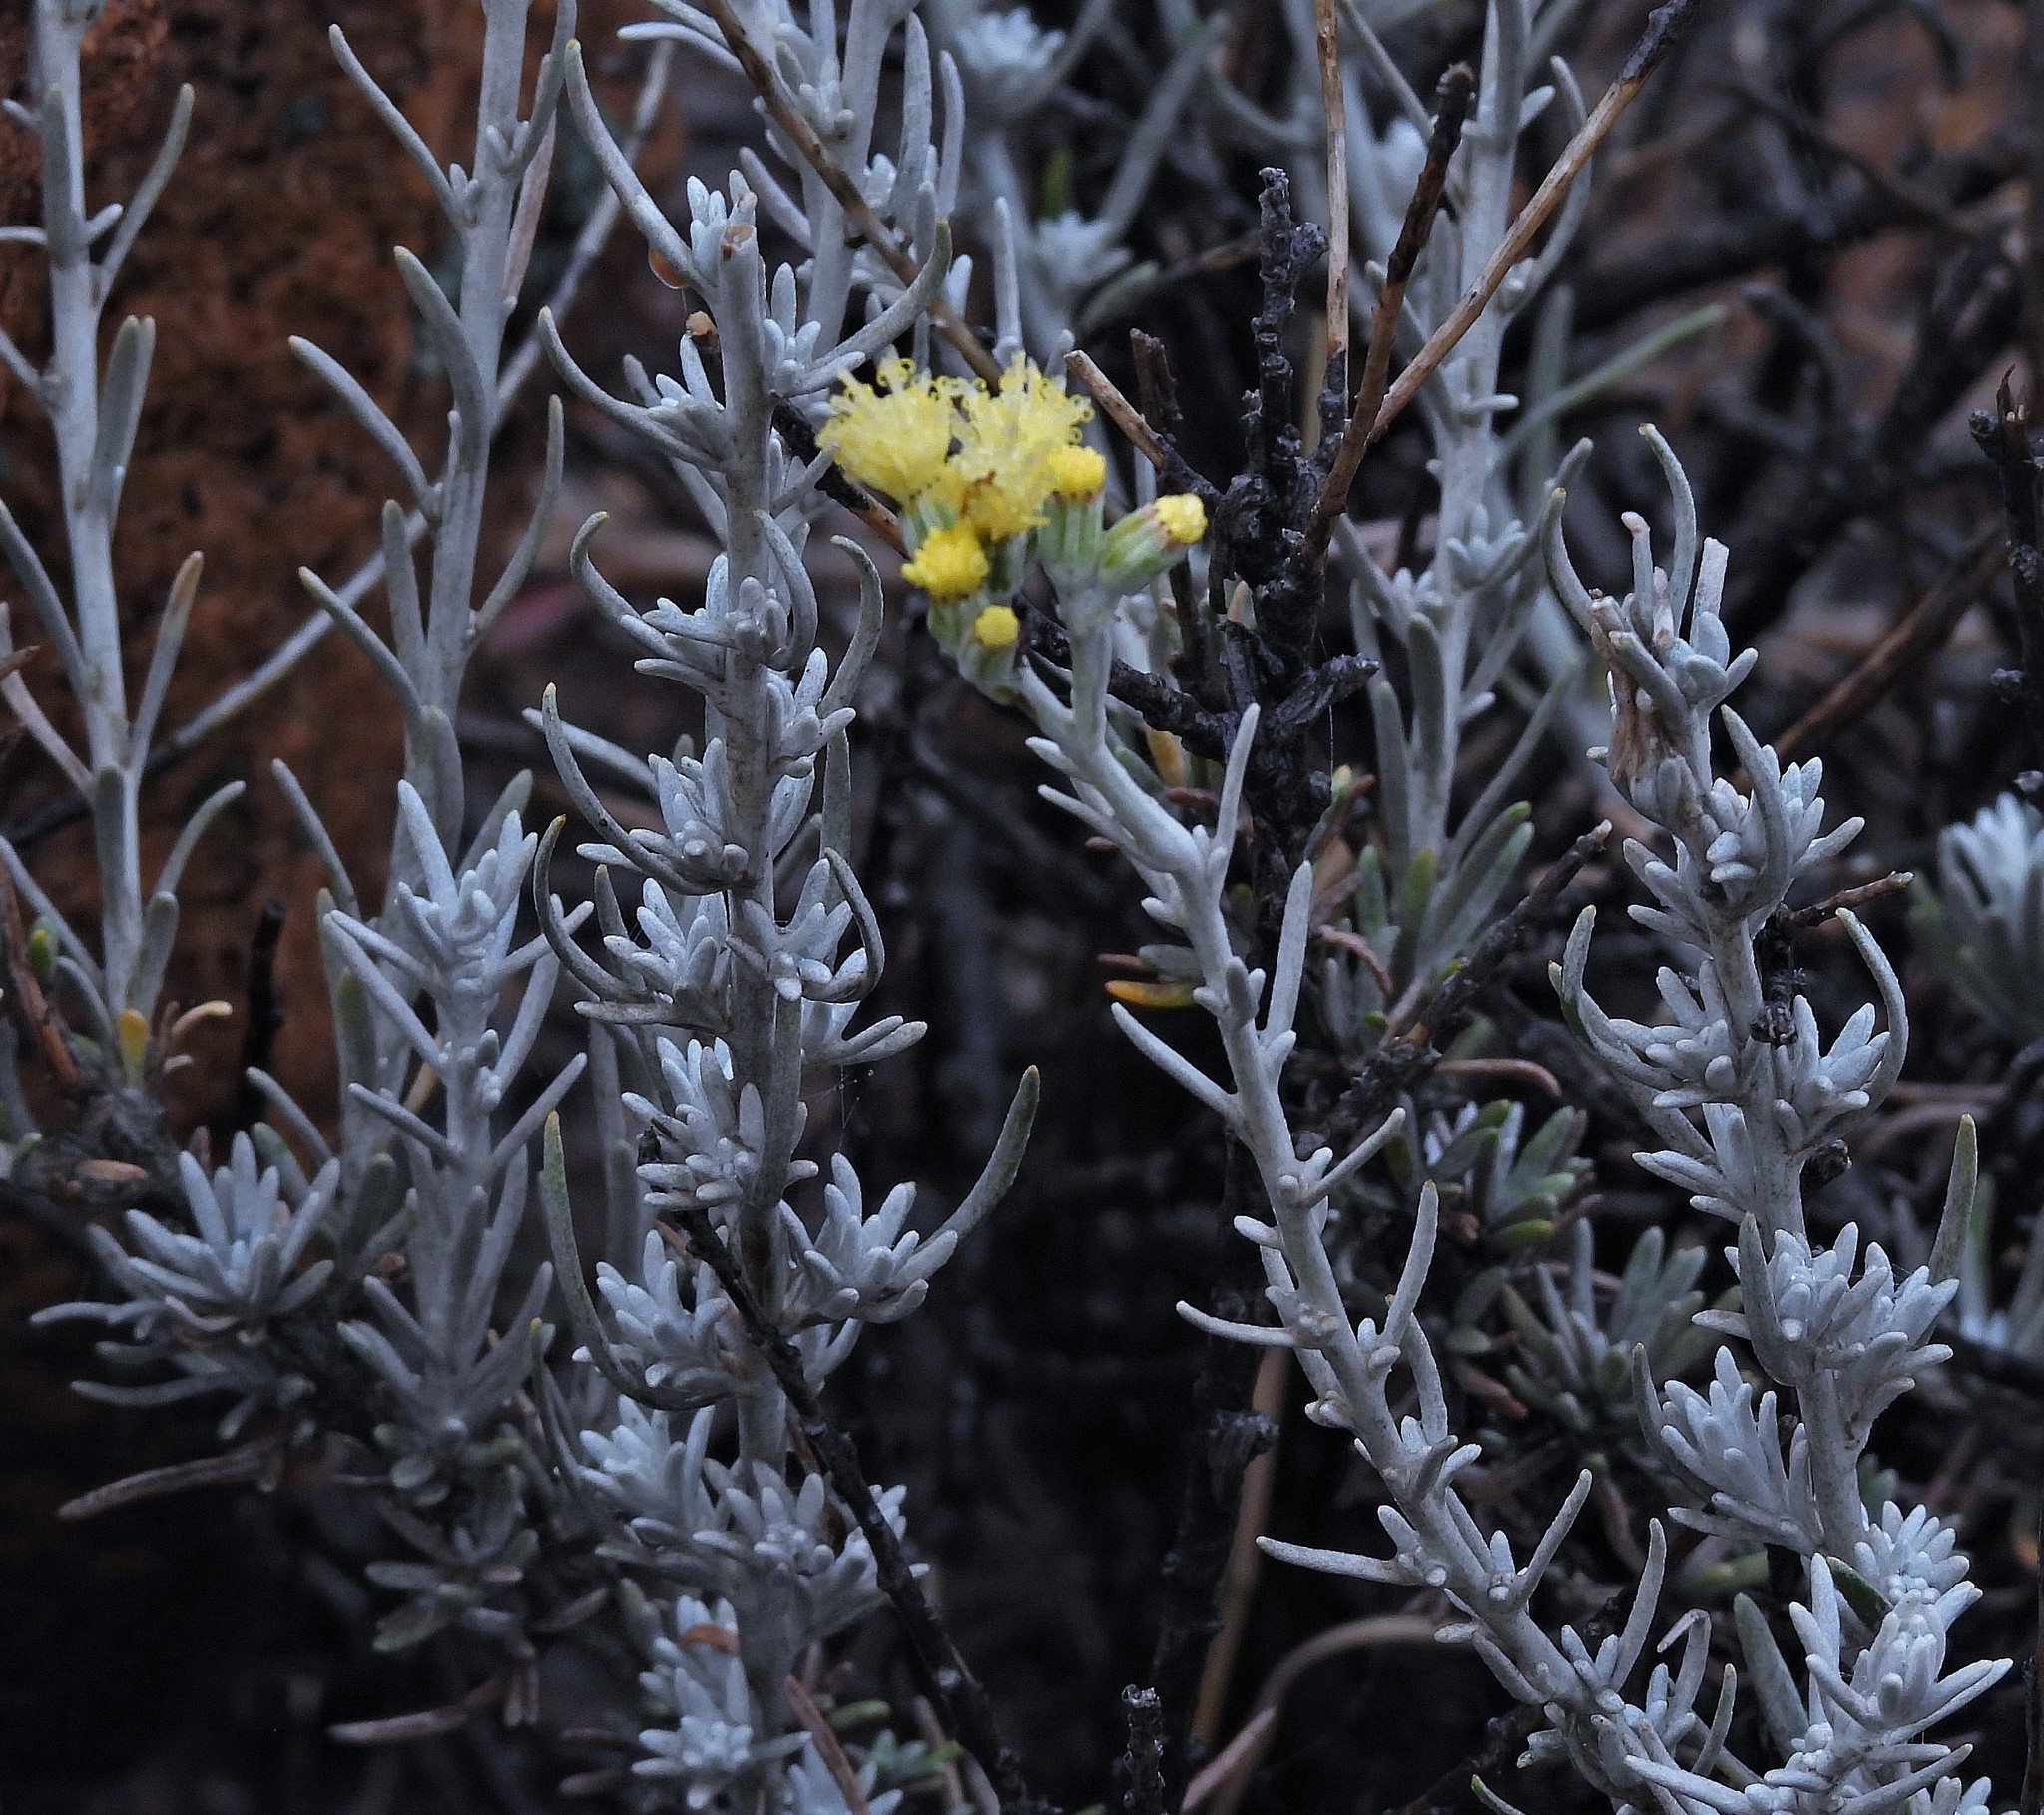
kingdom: Plantae
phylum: Tracheophyta
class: Magnoliopsida
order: Asterales
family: Asteraceae
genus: Senecio
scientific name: Senecio filaginoides
